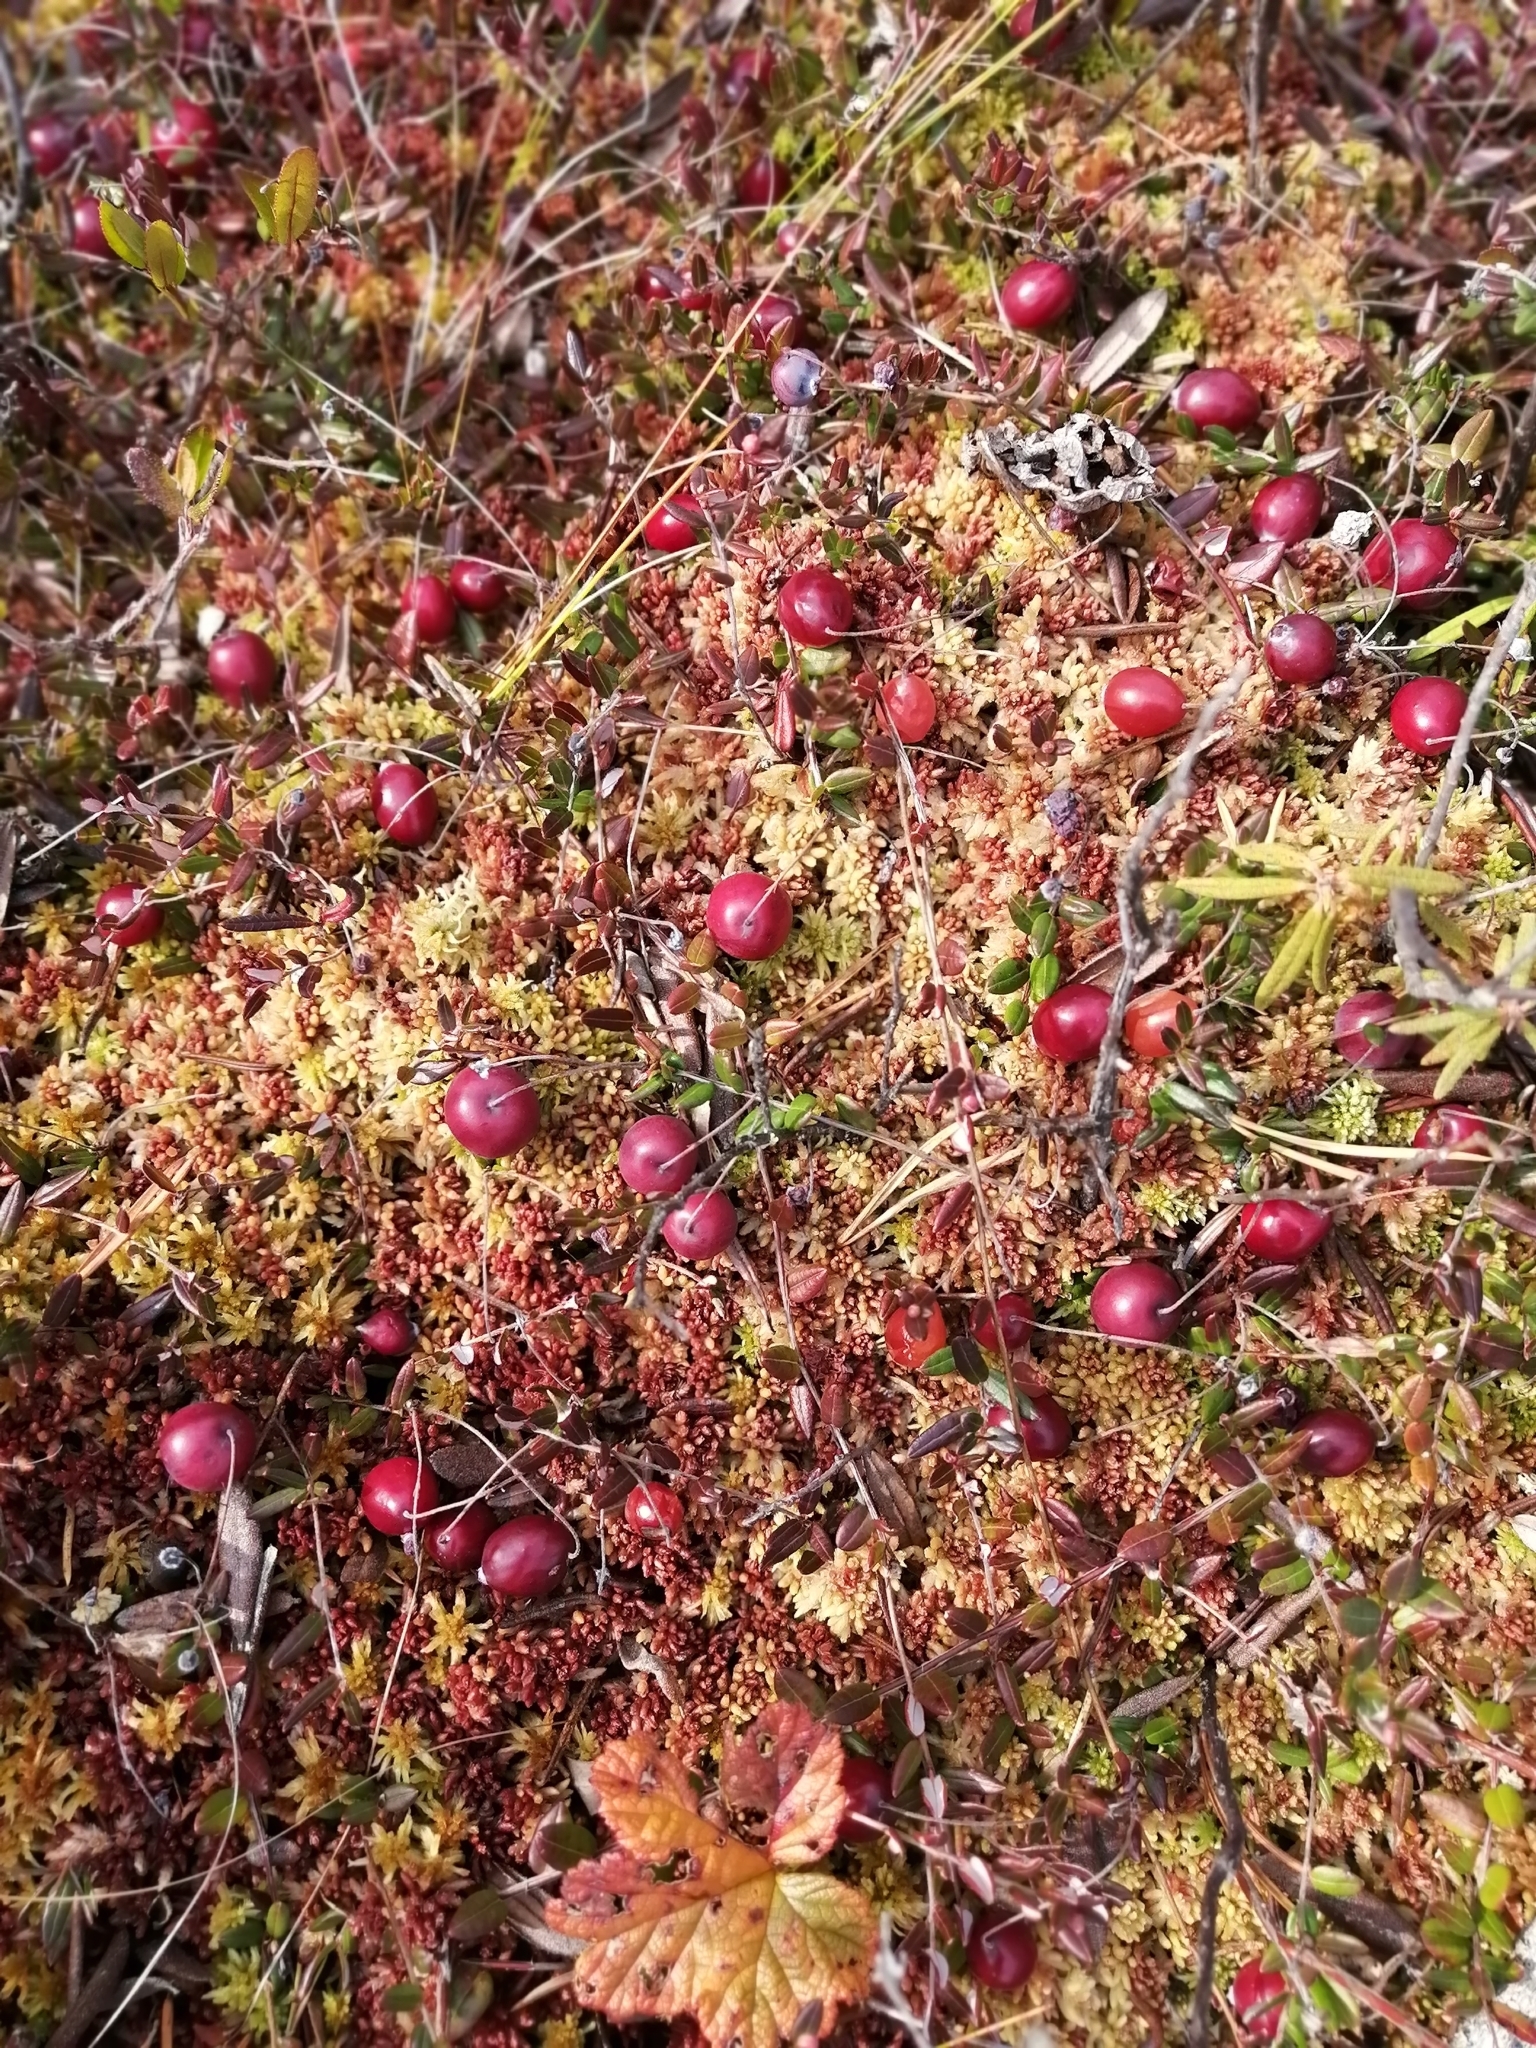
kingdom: Plantae
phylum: Tracheophyta
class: Magnoliopsida
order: Ericales
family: Ericaceae
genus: Vaccinium
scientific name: Vaccinium oxycoccos
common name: Cranberry
